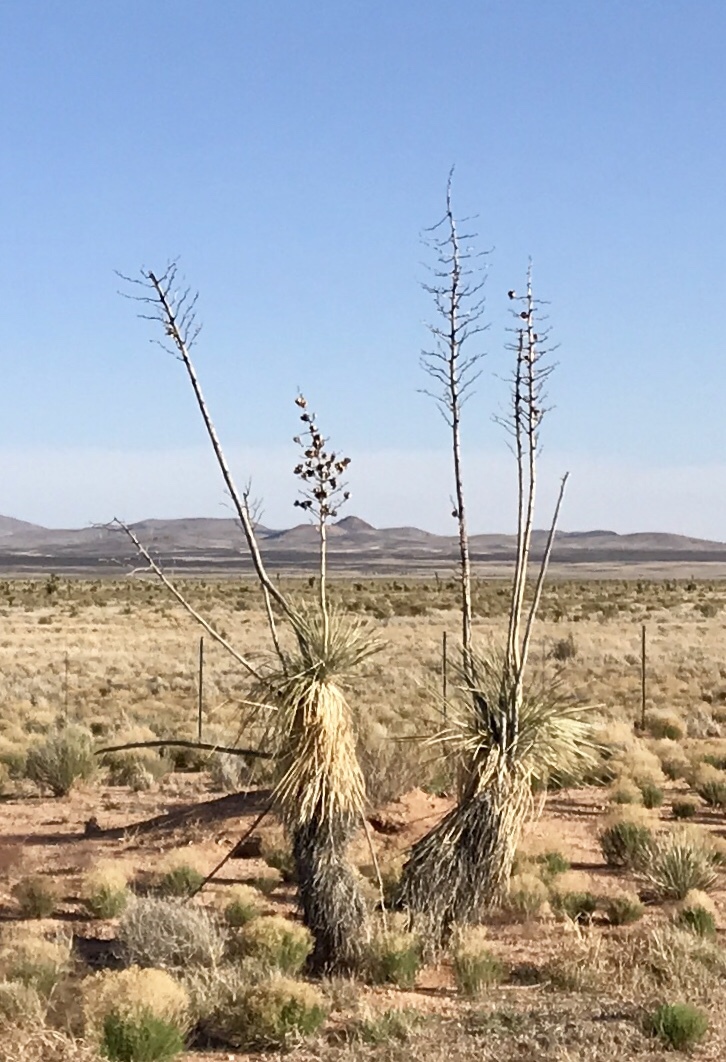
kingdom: Plantae
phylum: Tracheophyta
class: Liliopsida
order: Asparagales
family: Asparagaceae
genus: Yucca
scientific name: Yucca elata
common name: Palmella
